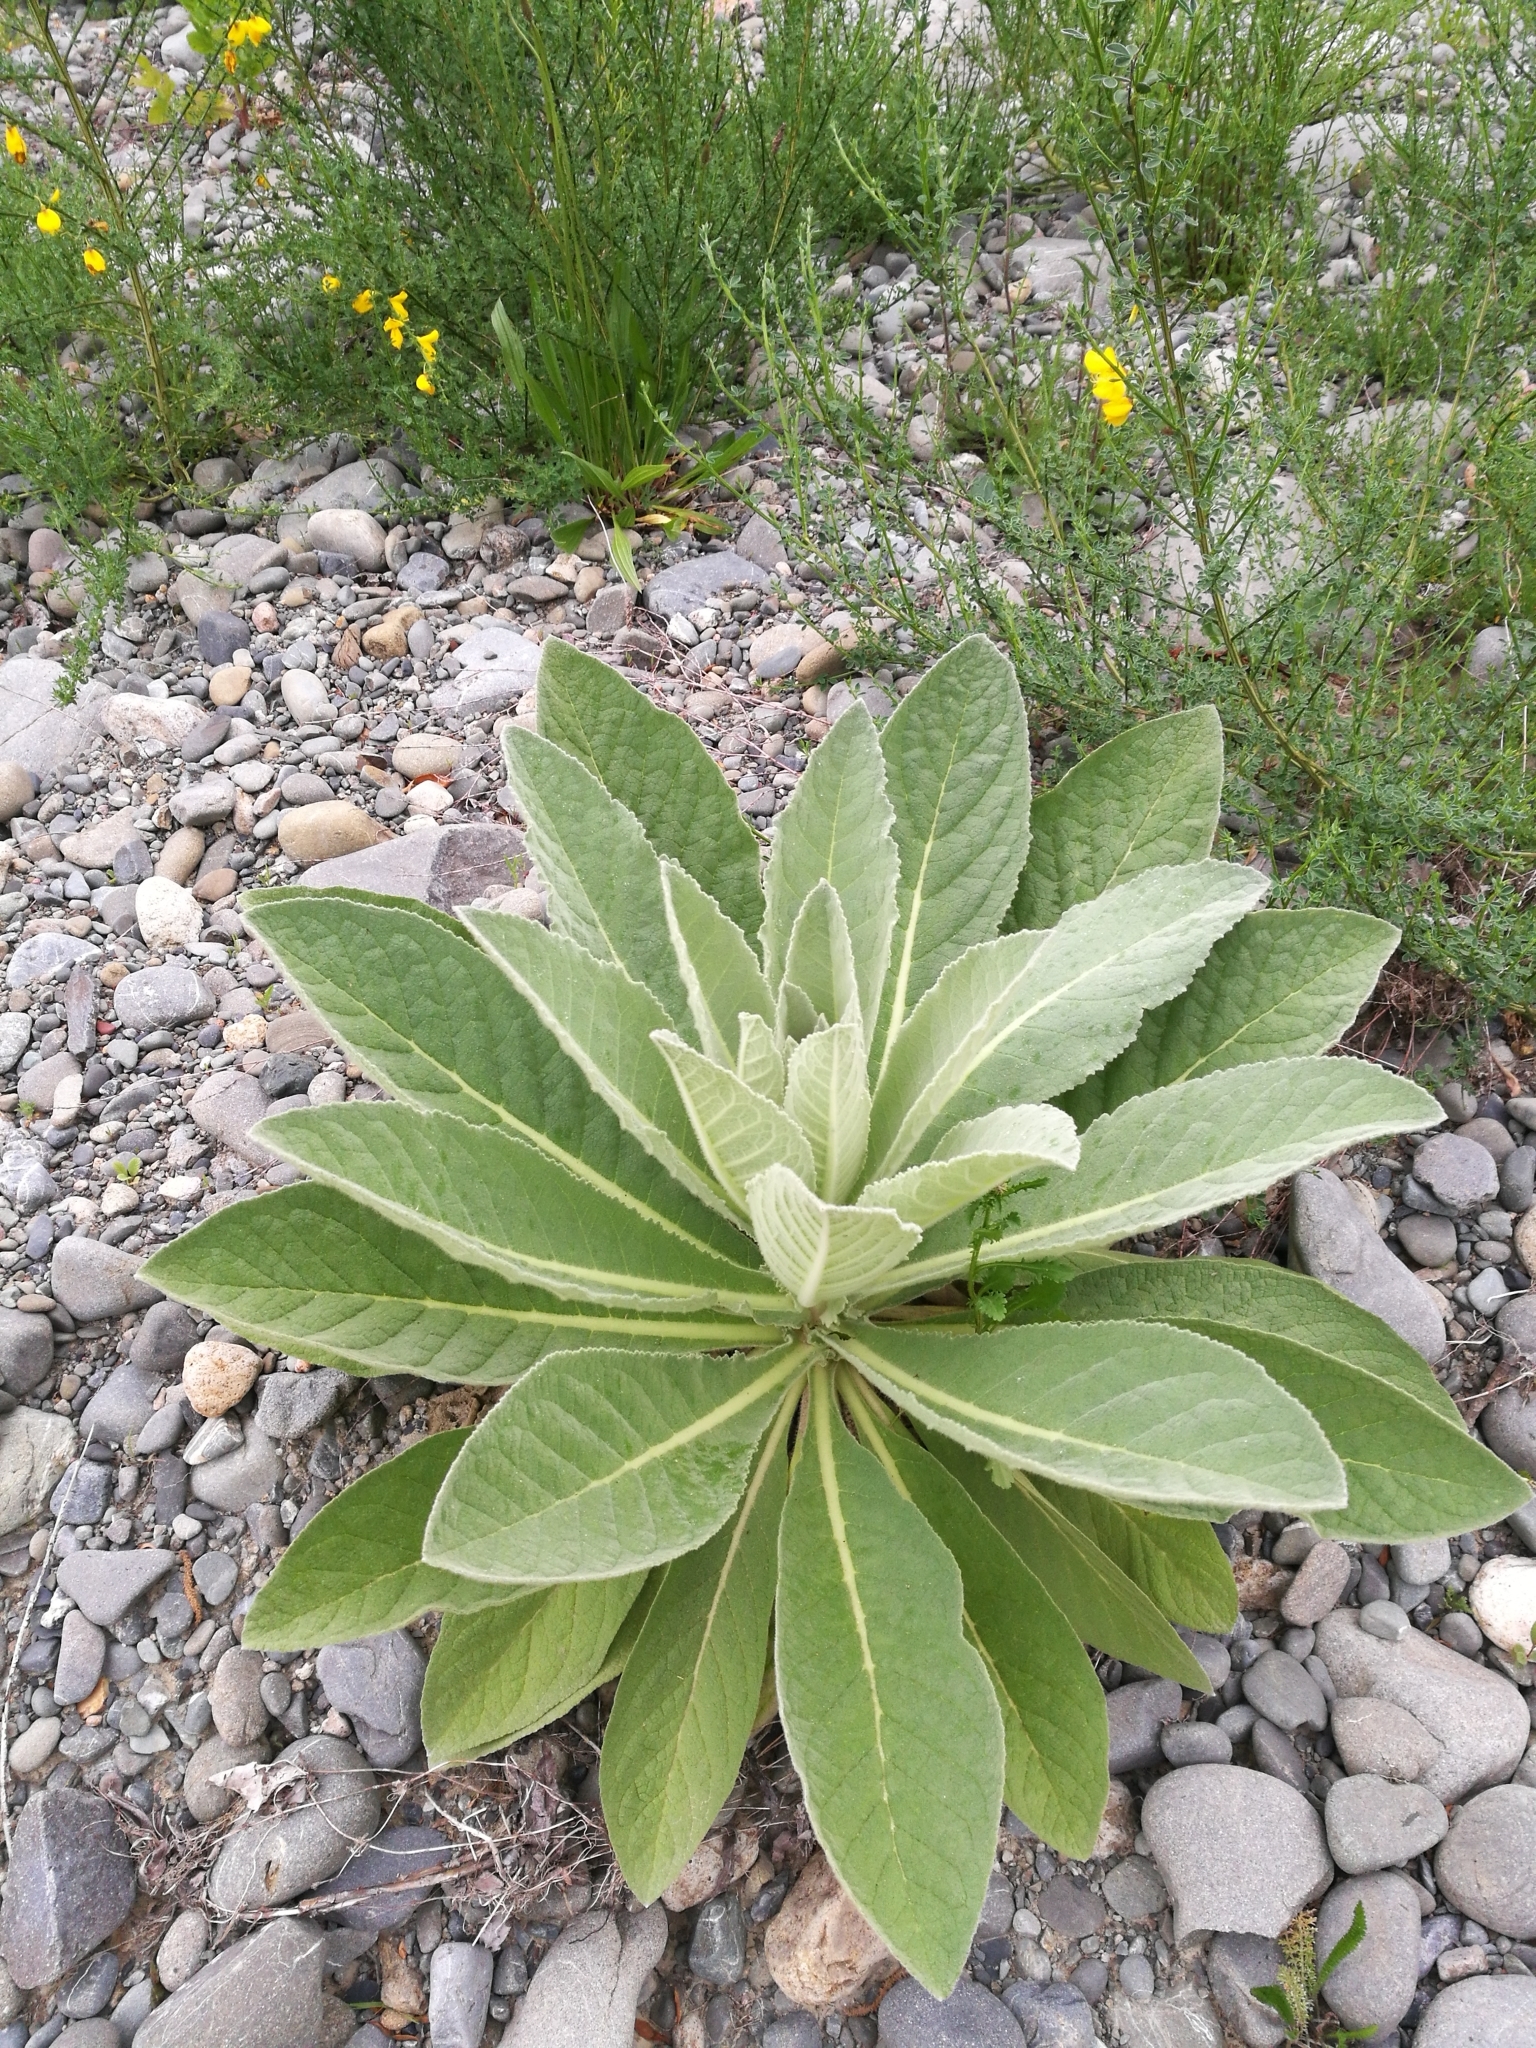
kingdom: Plantae
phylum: Tracheophyta
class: Magnoliopsida
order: Lamiales
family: Scrophulariaceae
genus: Verbascum
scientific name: Verbascum thapsus
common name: Common mullein
